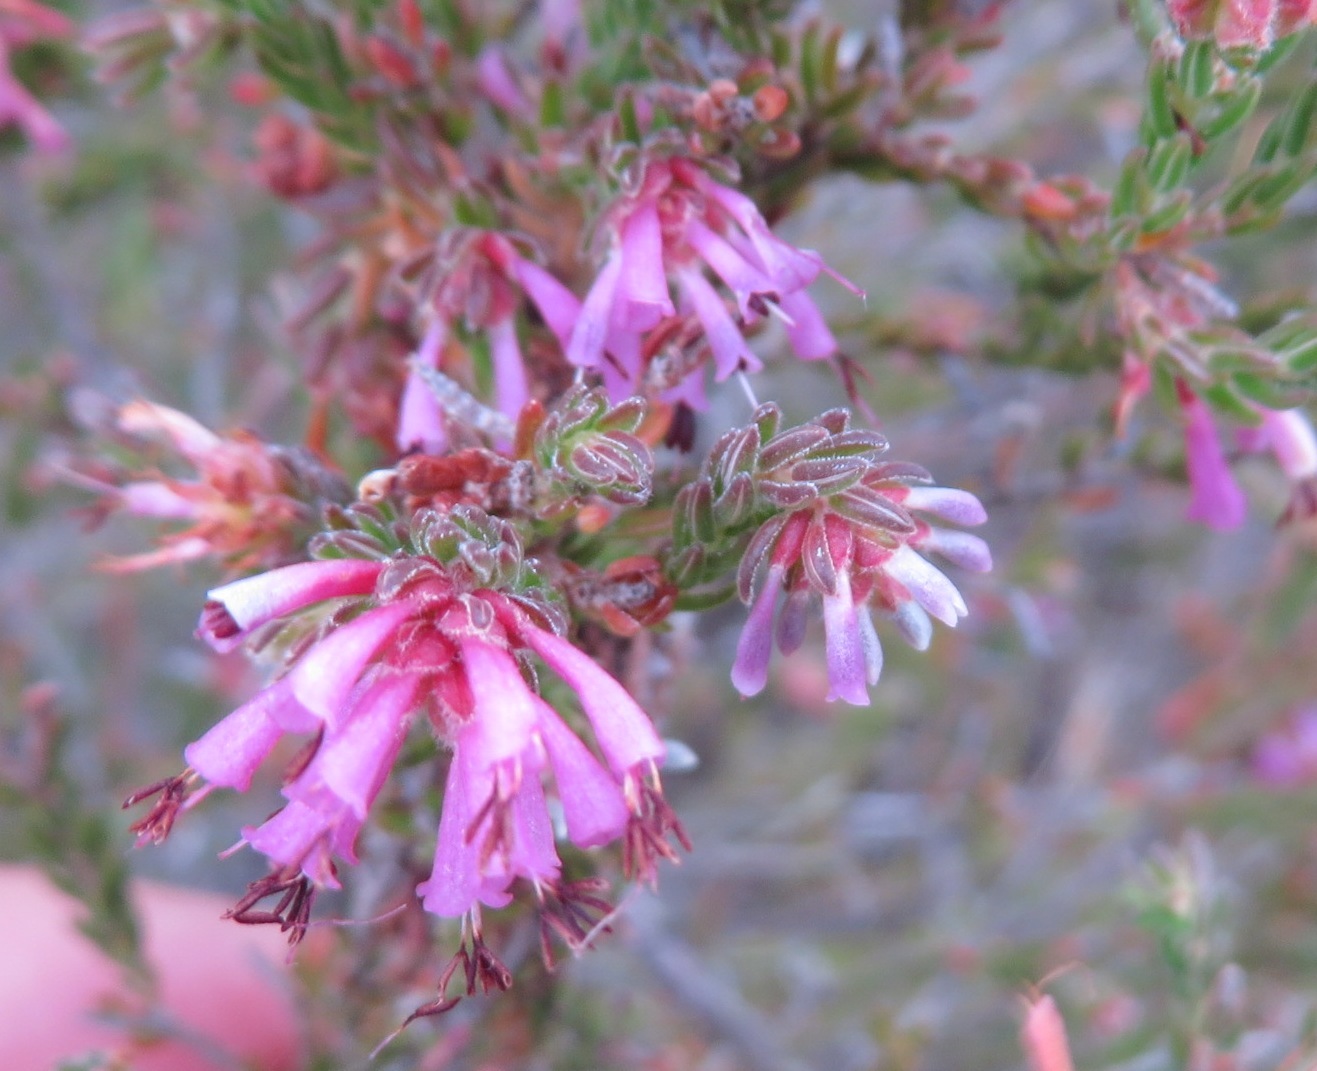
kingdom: Plantae
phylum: Tracheophyta
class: Magnoliopsida
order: Ericales
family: Ericaceae
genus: Erica
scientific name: Erica labialis
